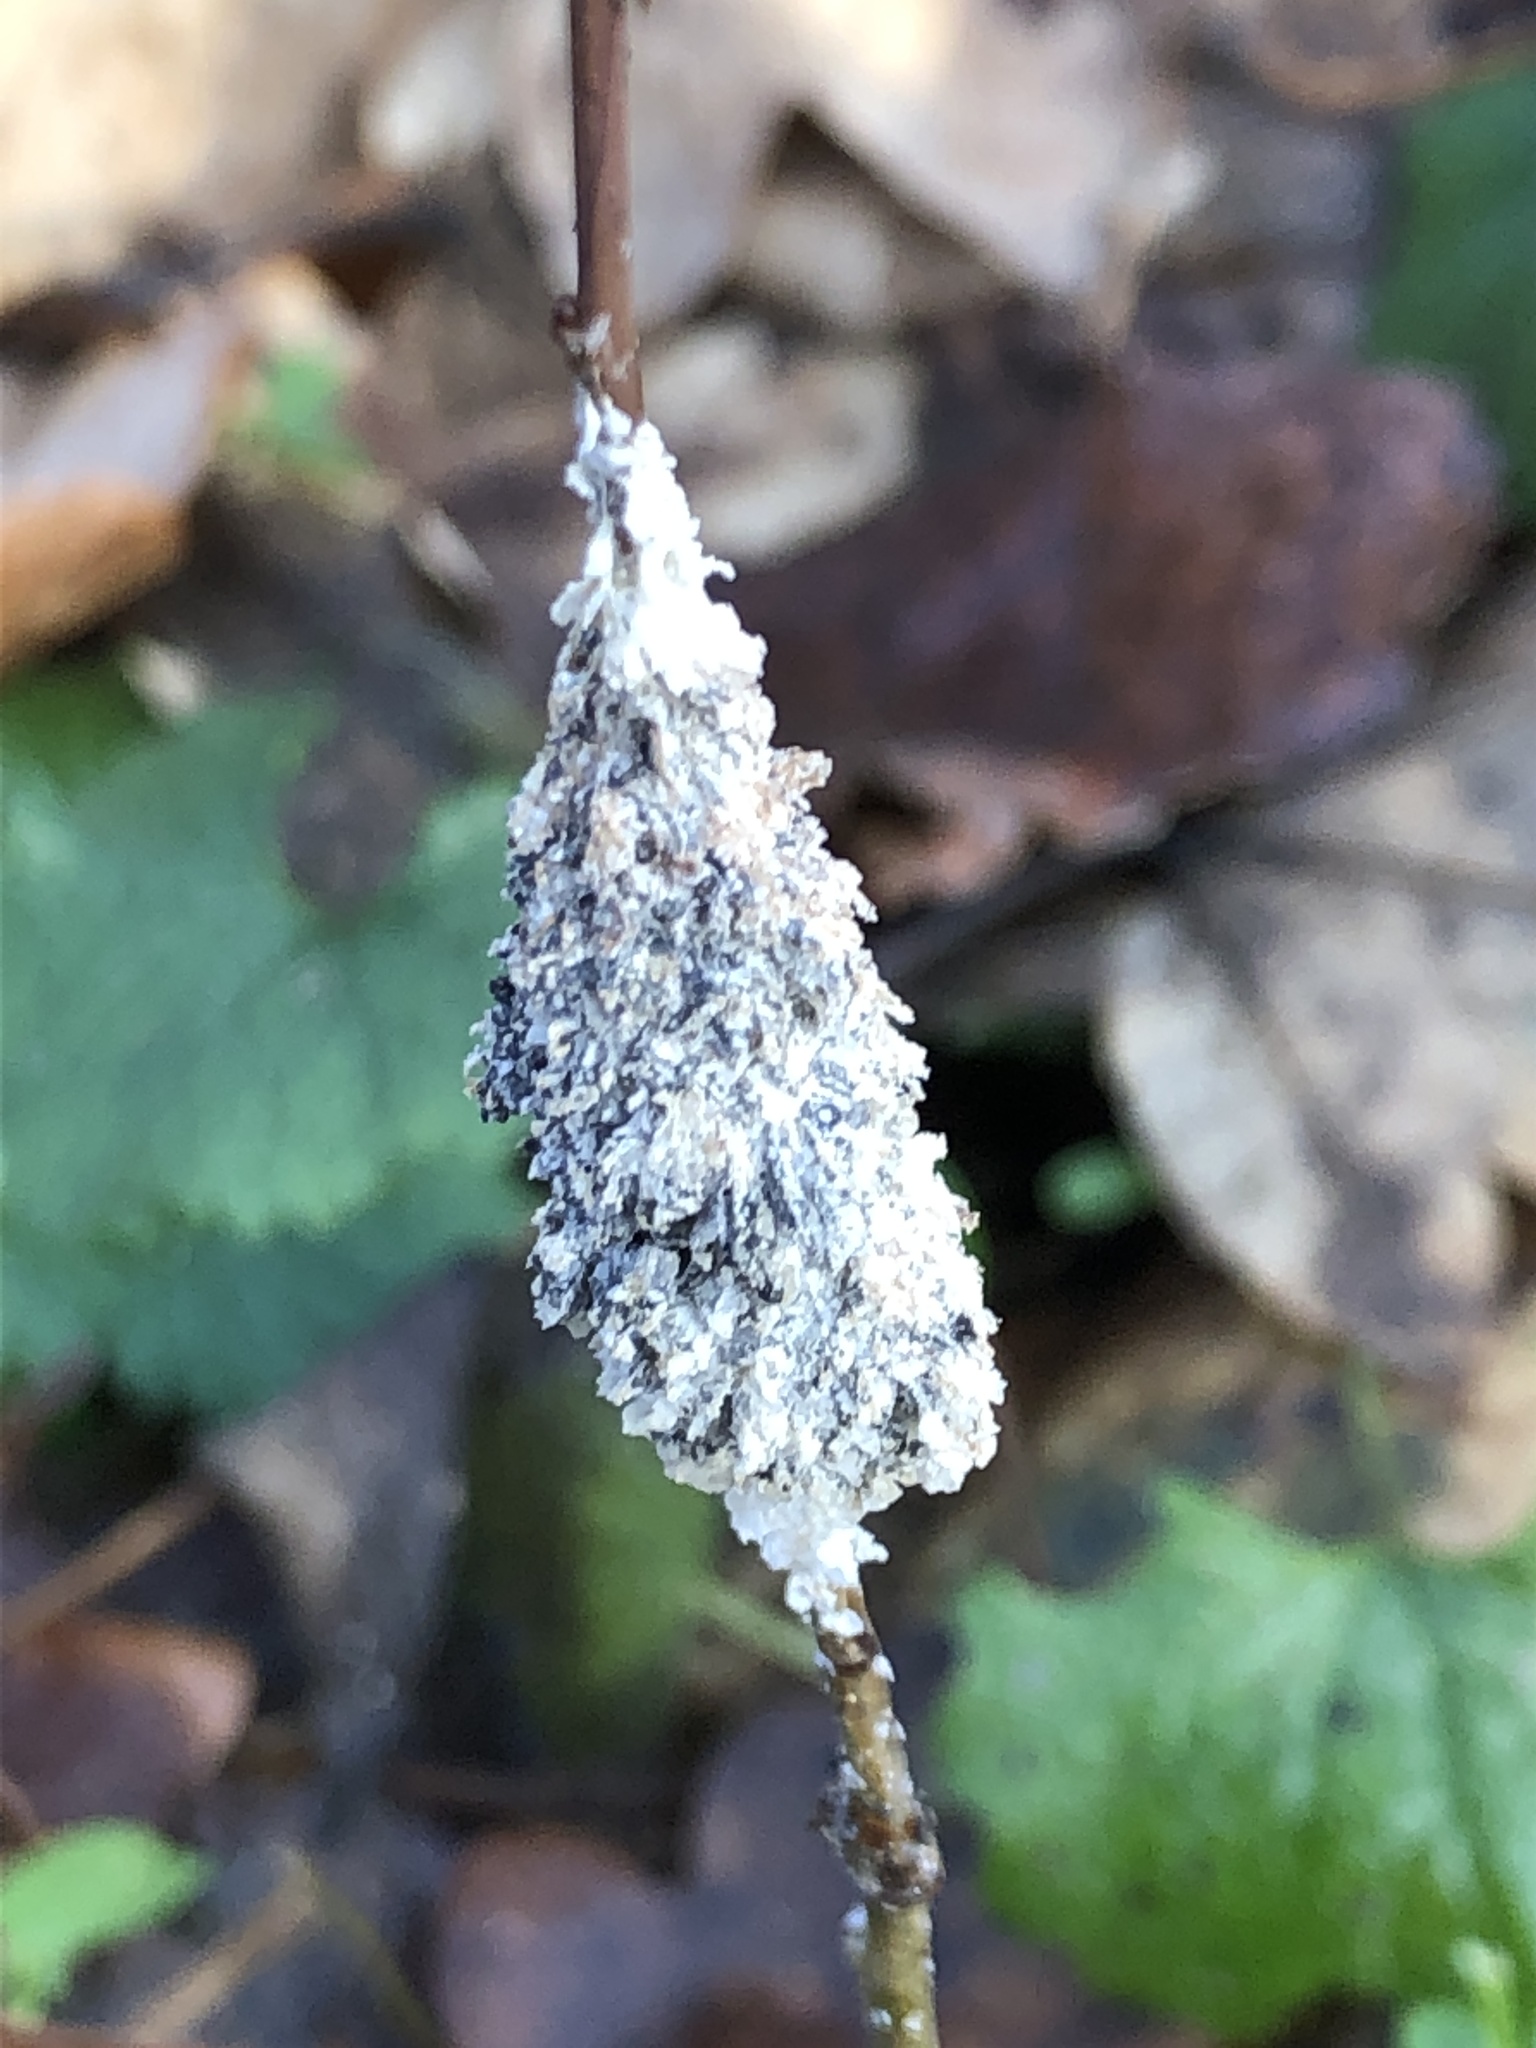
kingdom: Protozoa
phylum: Mycetozoa
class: Myxomycetes
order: Physarales
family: Physaraceae
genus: Didymium
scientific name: Didymium
